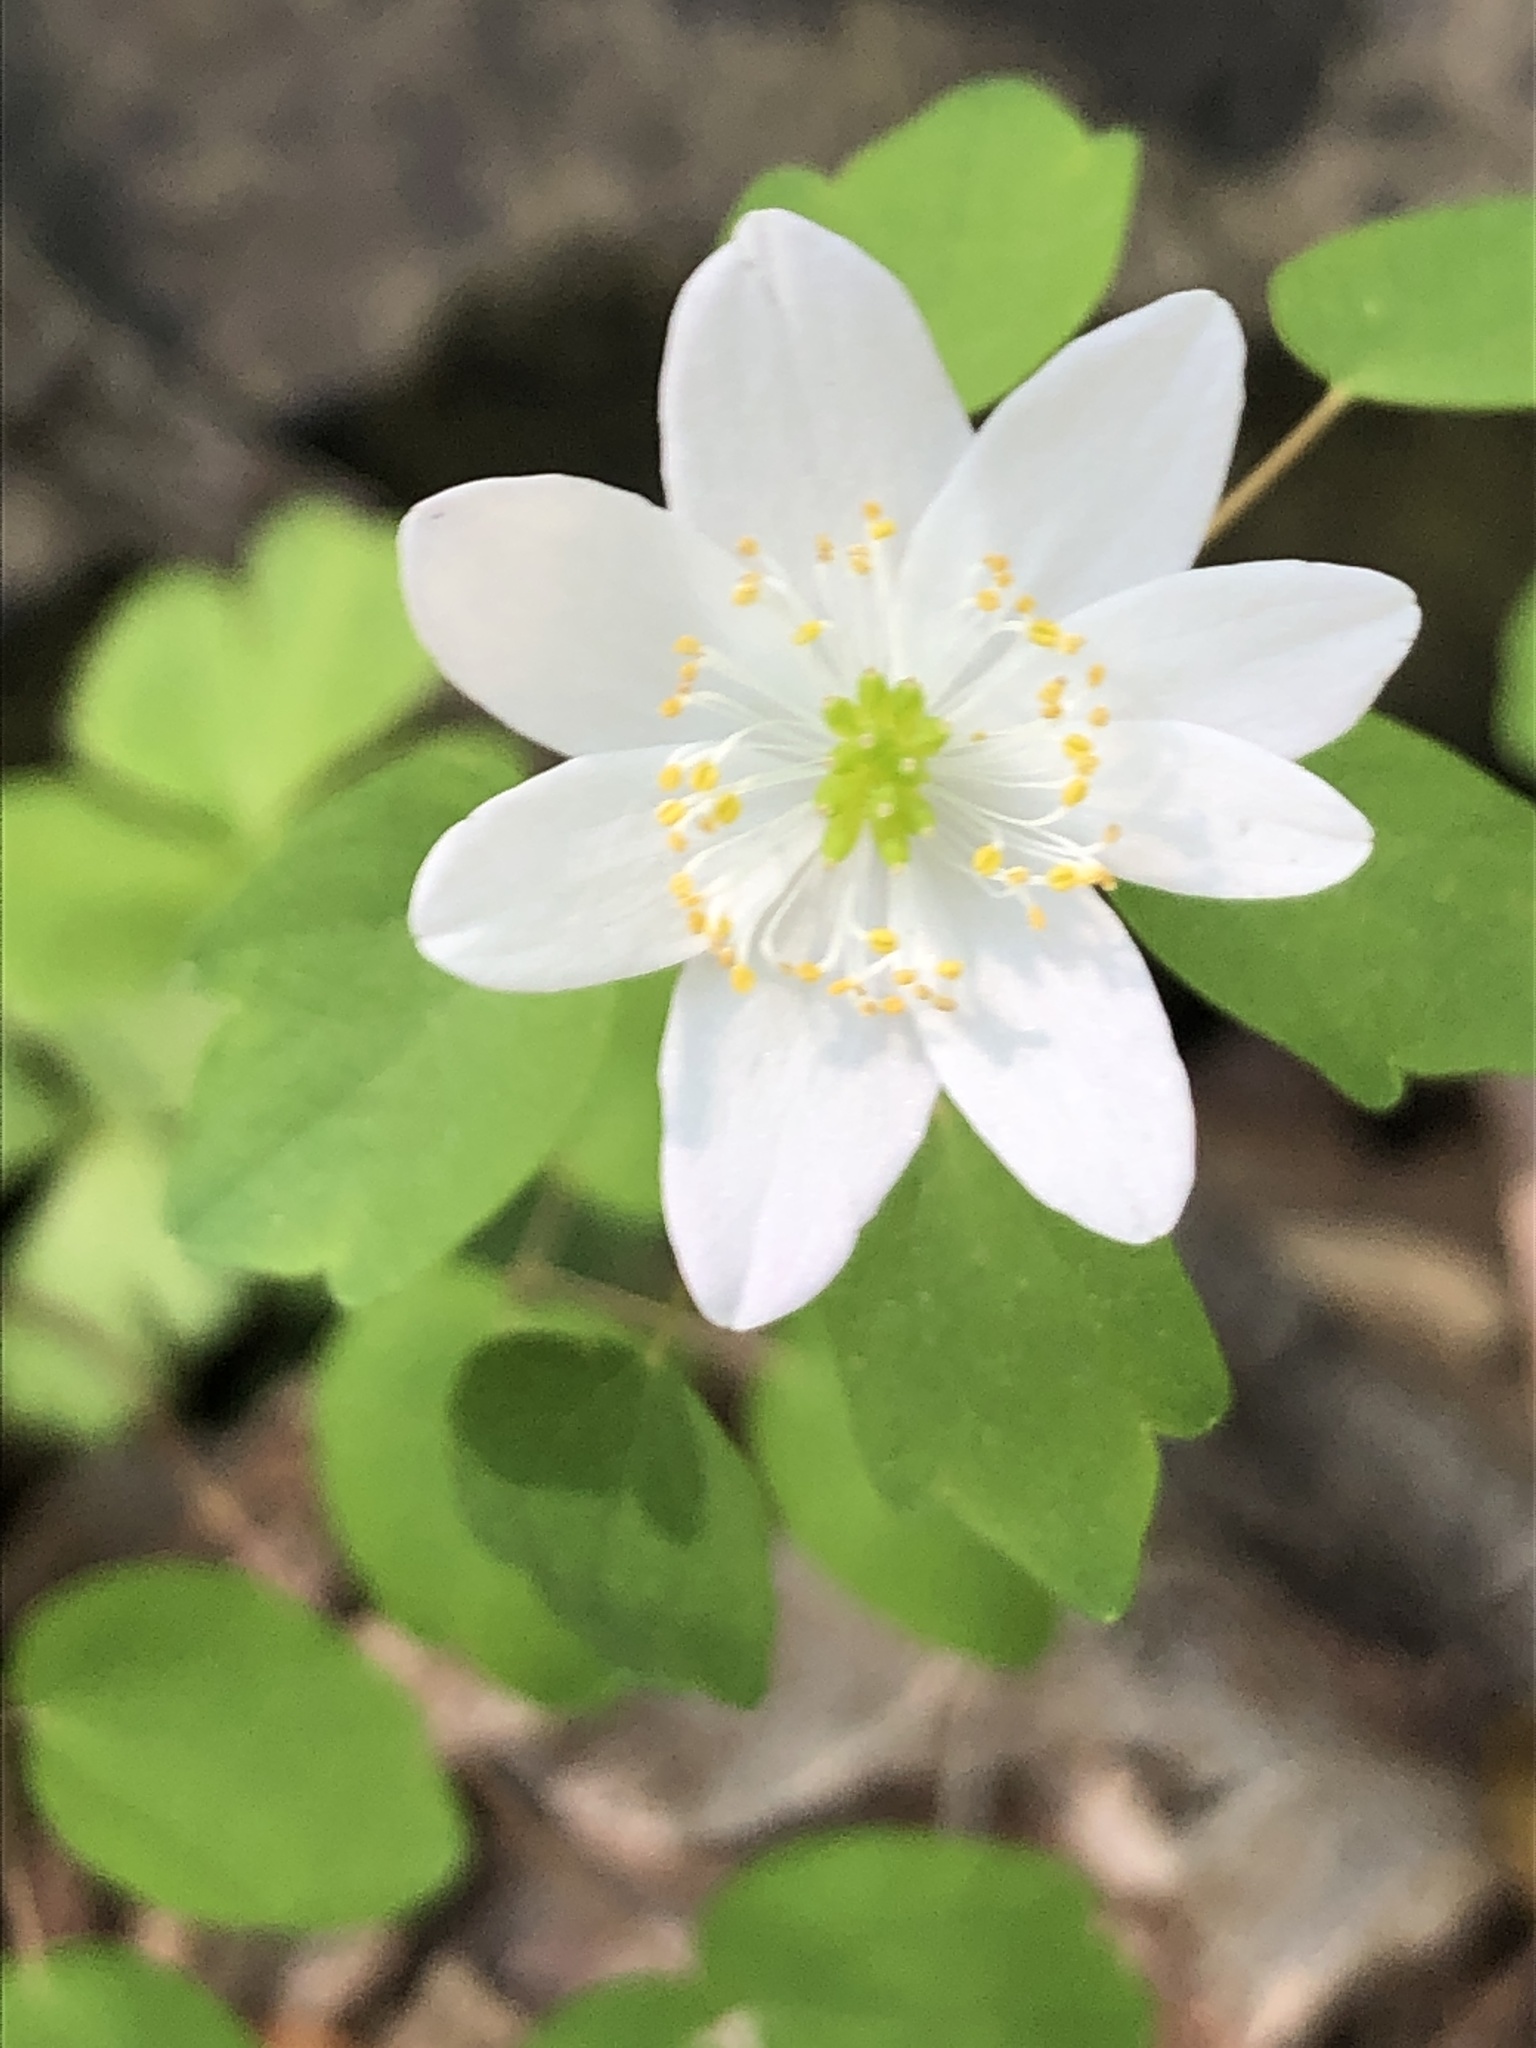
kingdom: Plantae
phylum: Tracheophyta
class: Magnoliopsida
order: Ranunculales
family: Ranunculaceae
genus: Thalictrum
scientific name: Thalictrum thalictroides
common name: Rue-anemone
